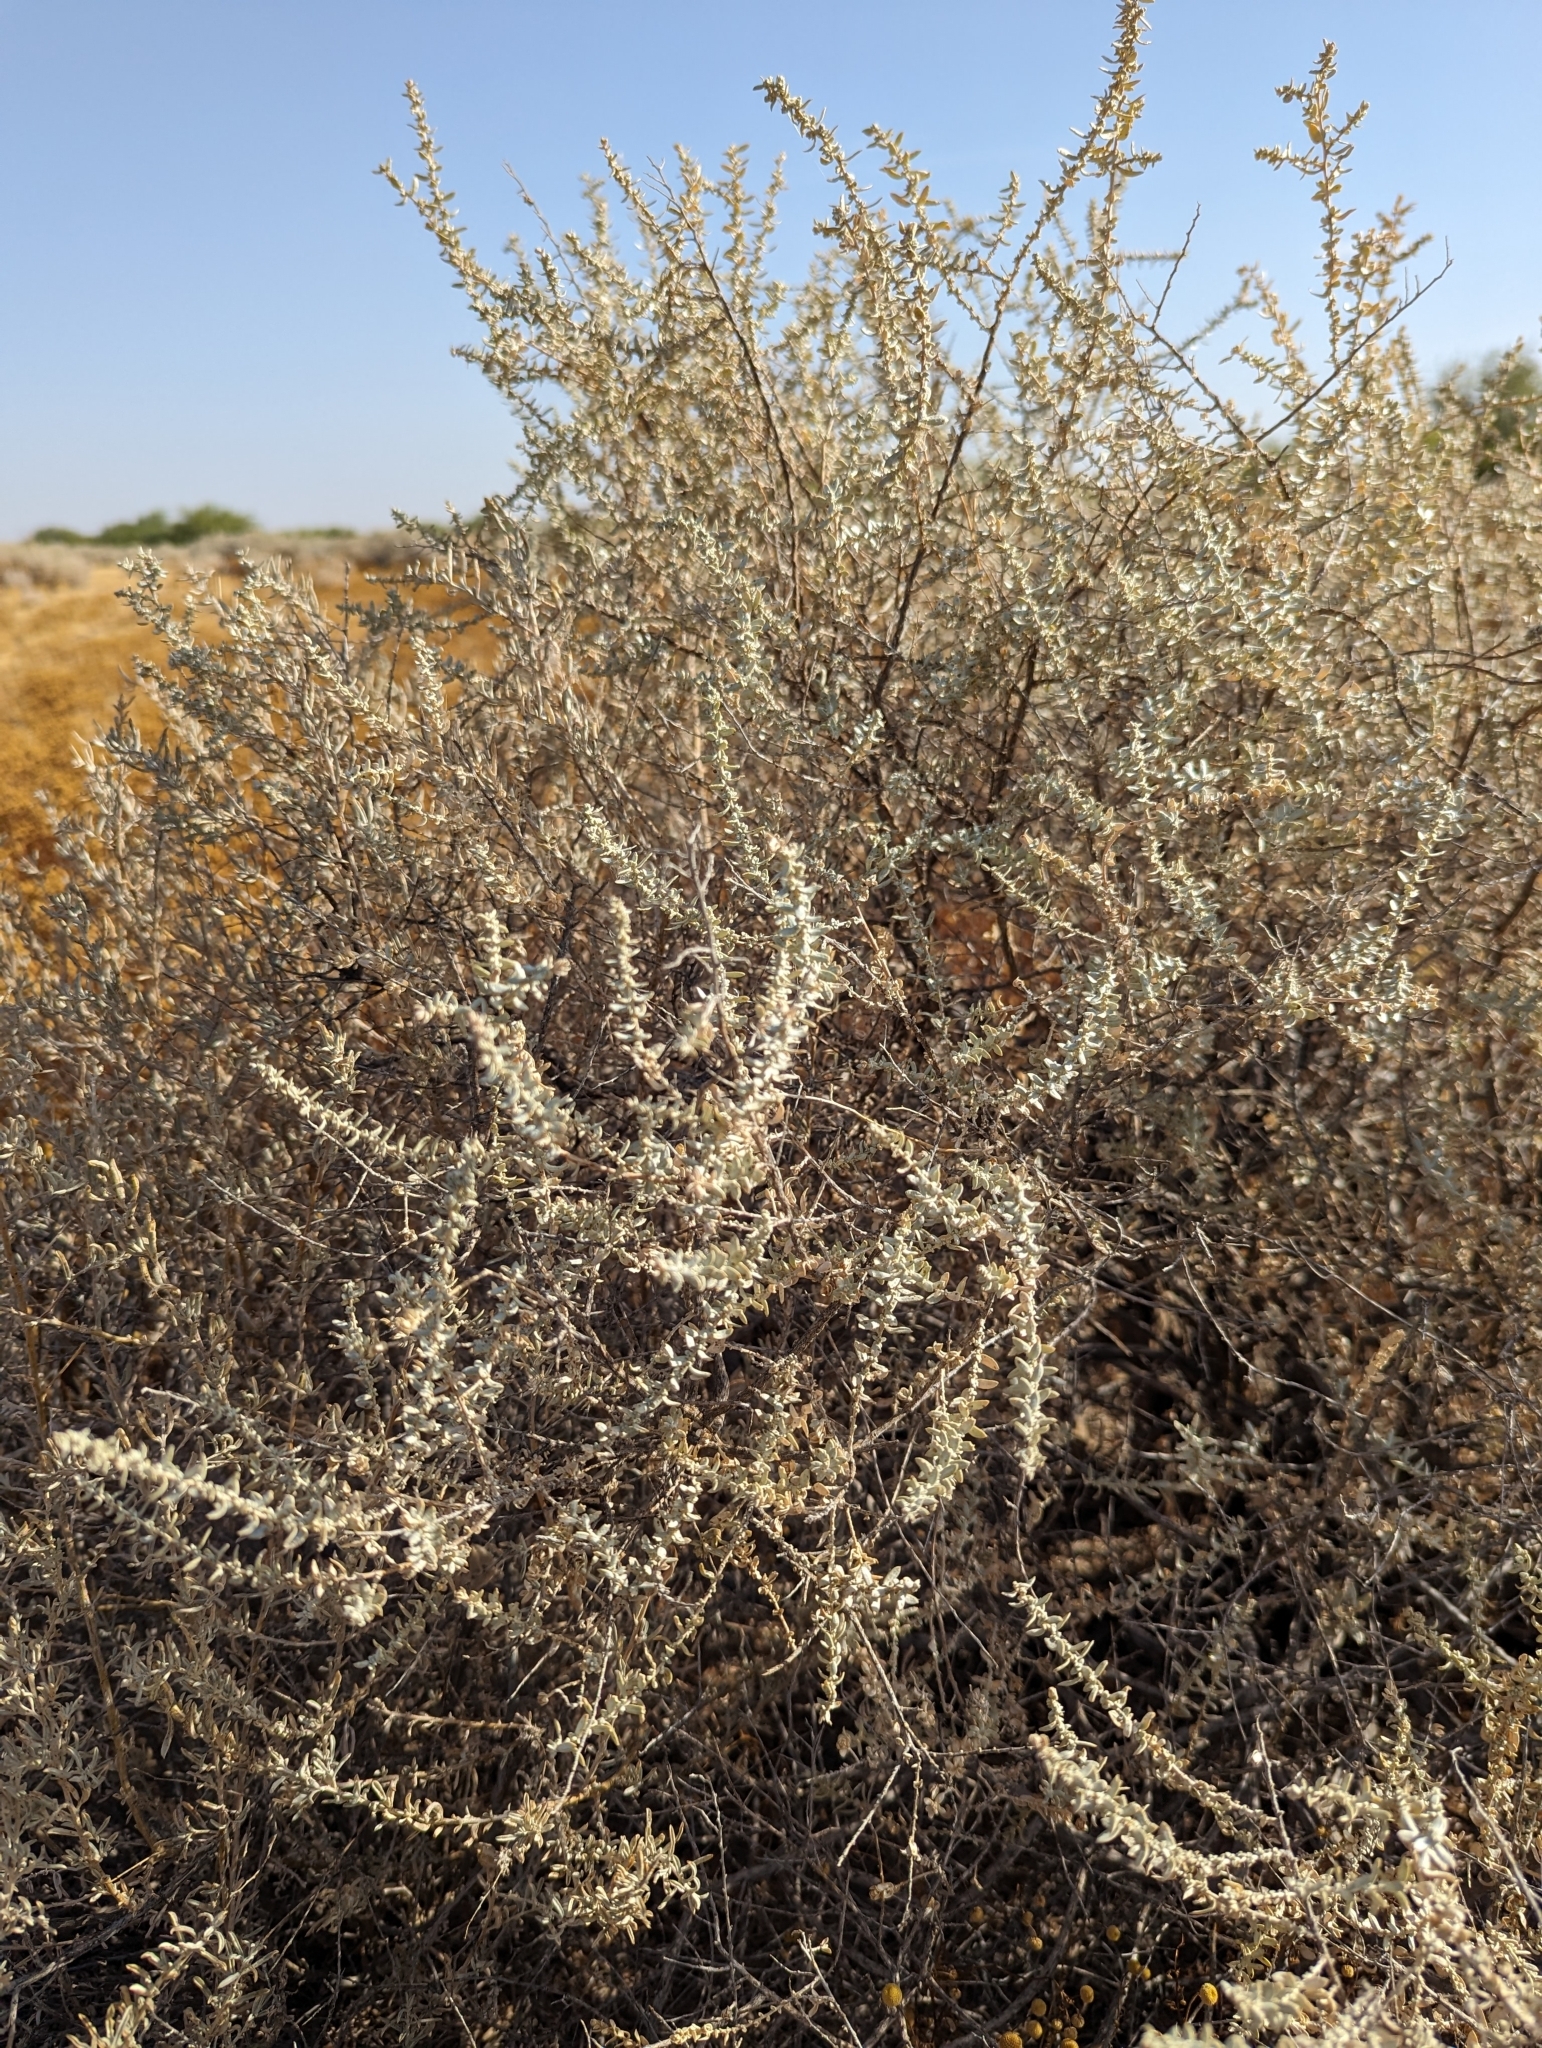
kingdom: Plantae
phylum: Tracheophyta
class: Magnoliopsida
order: Caryophyllales
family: Amaranthaceae
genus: Atriplex
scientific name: Atriplex polycarpa
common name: Desert saltbush
